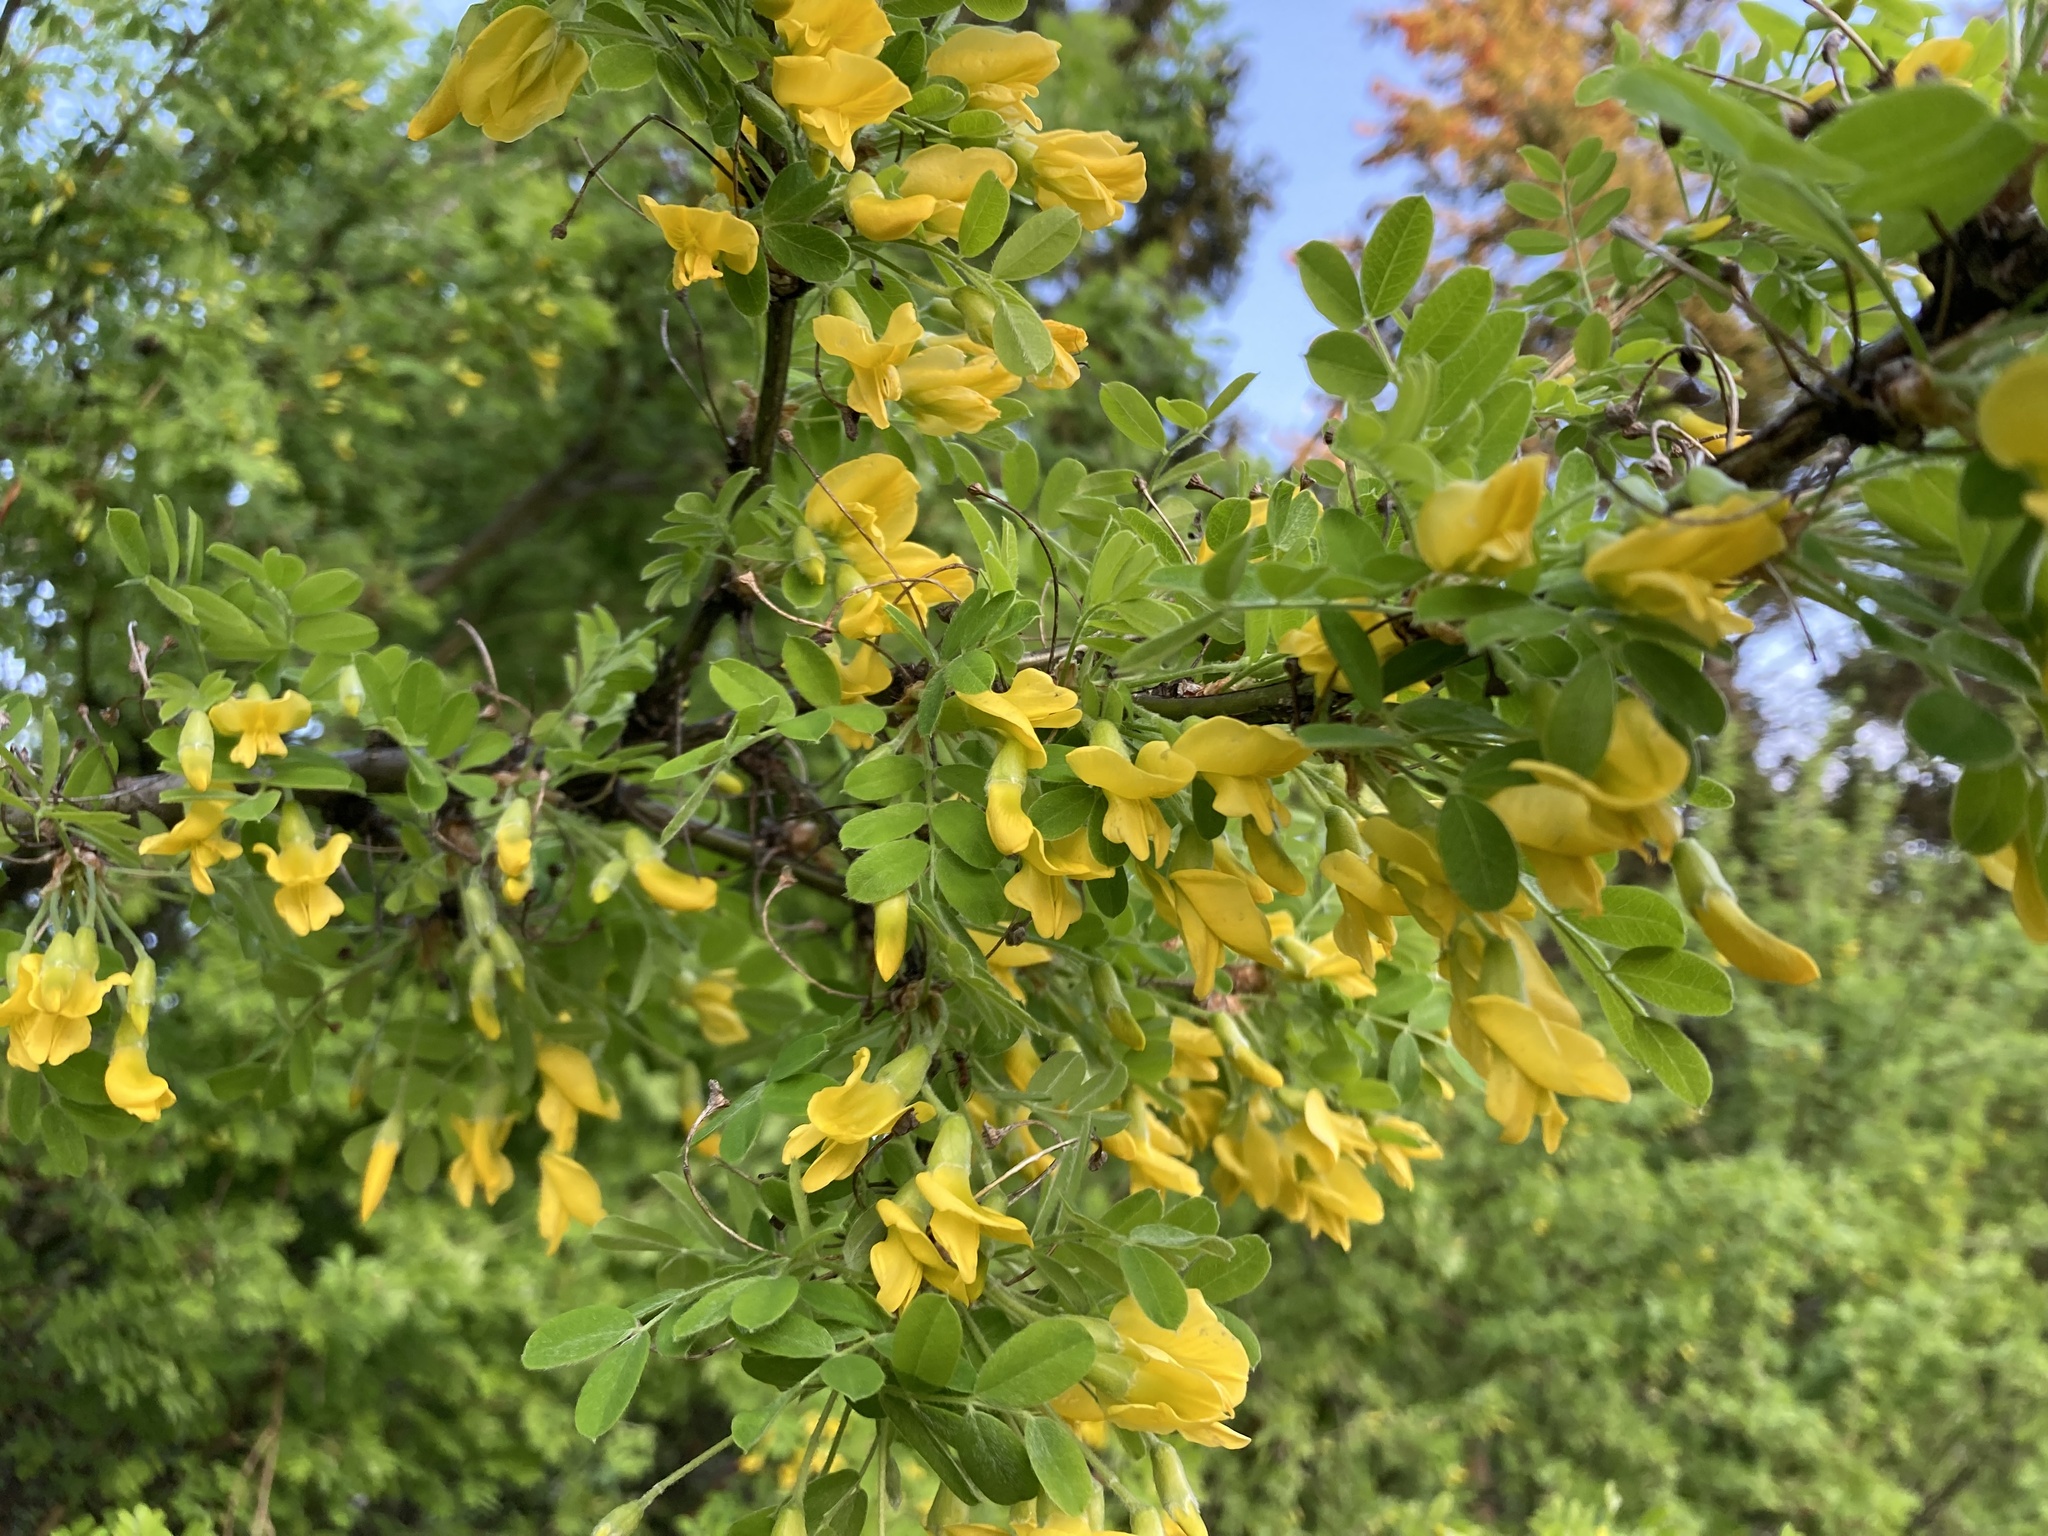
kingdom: Plantae
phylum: Tracheophyta
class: Magnoliopsida
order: Fabales
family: Fabaceae
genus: Caragana
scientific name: Caragana arborescens
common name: Siberian peashrub
